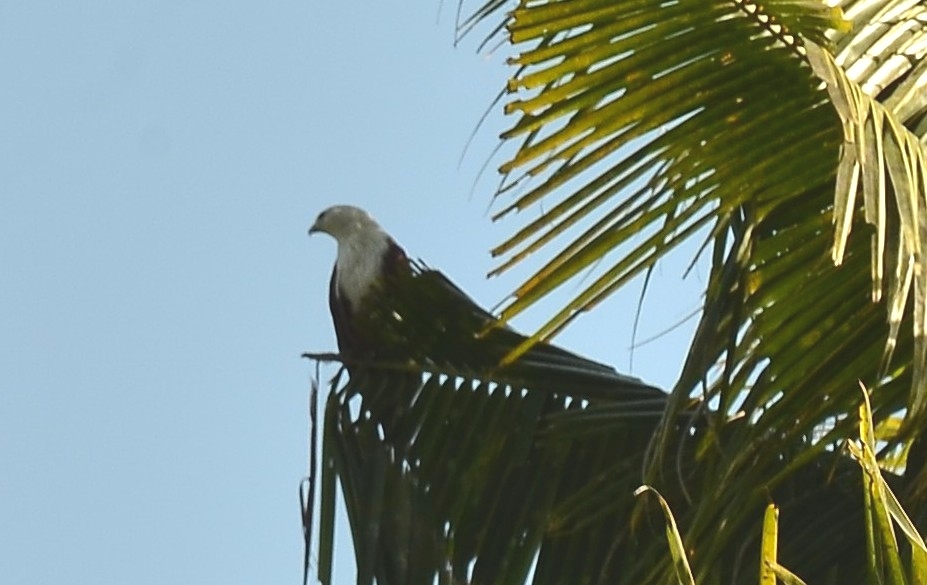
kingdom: Animalia
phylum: Chordata
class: Aves
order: Accipitriformes
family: Accipitridae
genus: Haliastur
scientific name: Haliastur indus
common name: Brahminy kite
